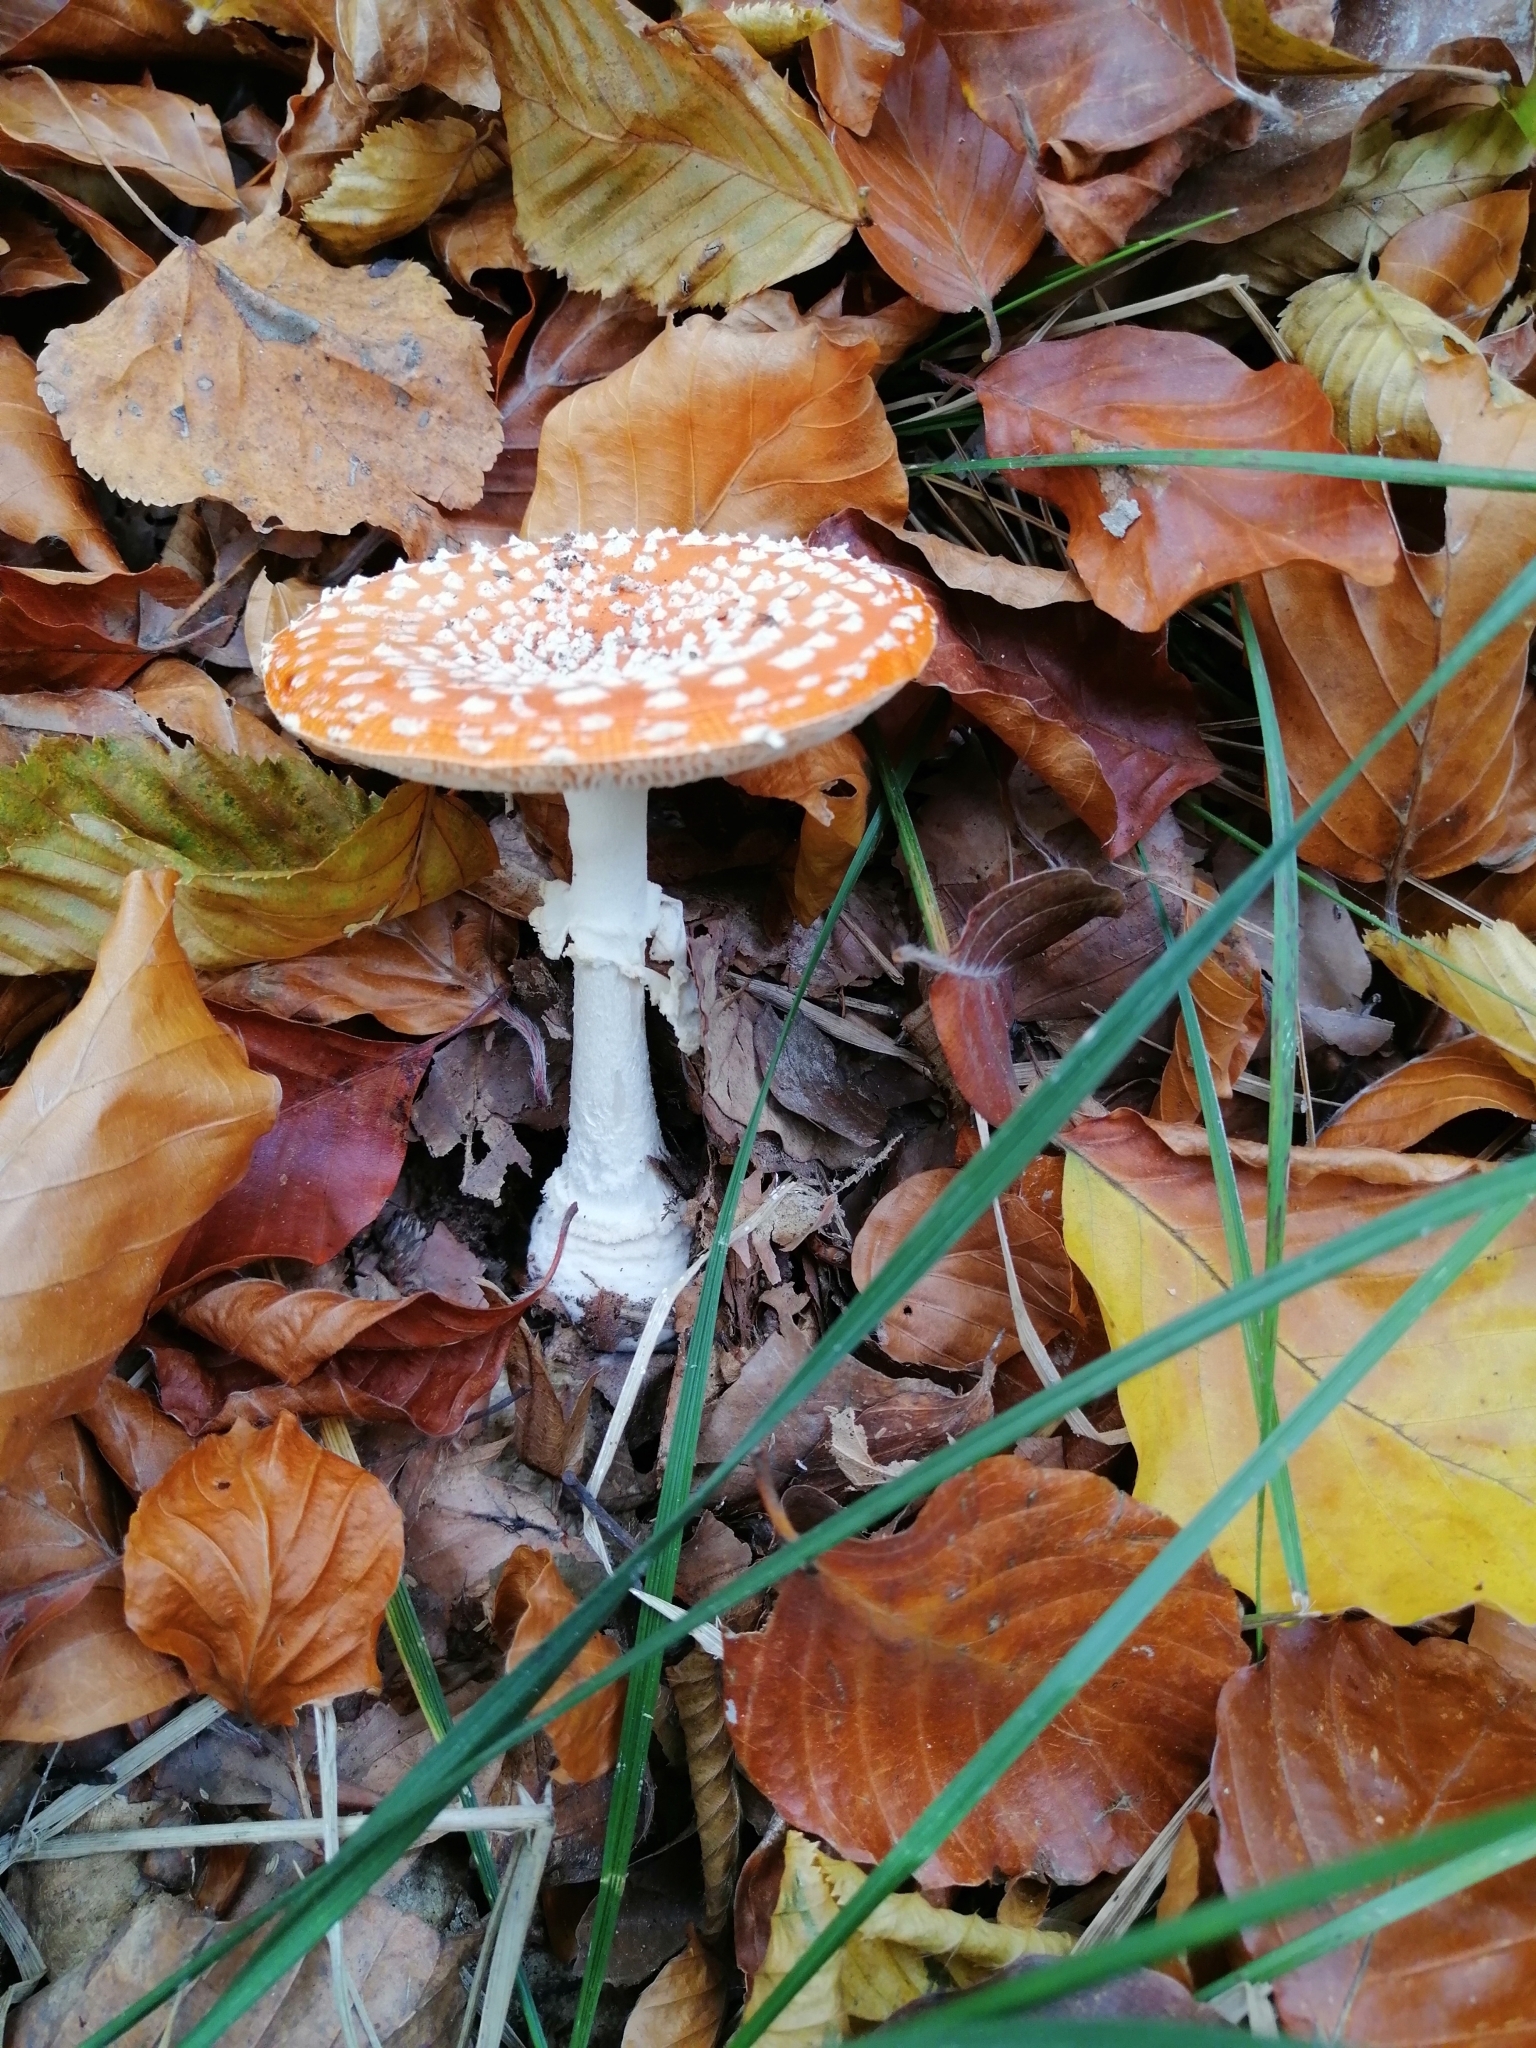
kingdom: Fungi
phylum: Basidiomycota
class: Agaricomycetes
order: Agaricales
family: Amanitaceae
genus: Amanita
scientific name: Amanita muscaria
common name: Fly agaric
